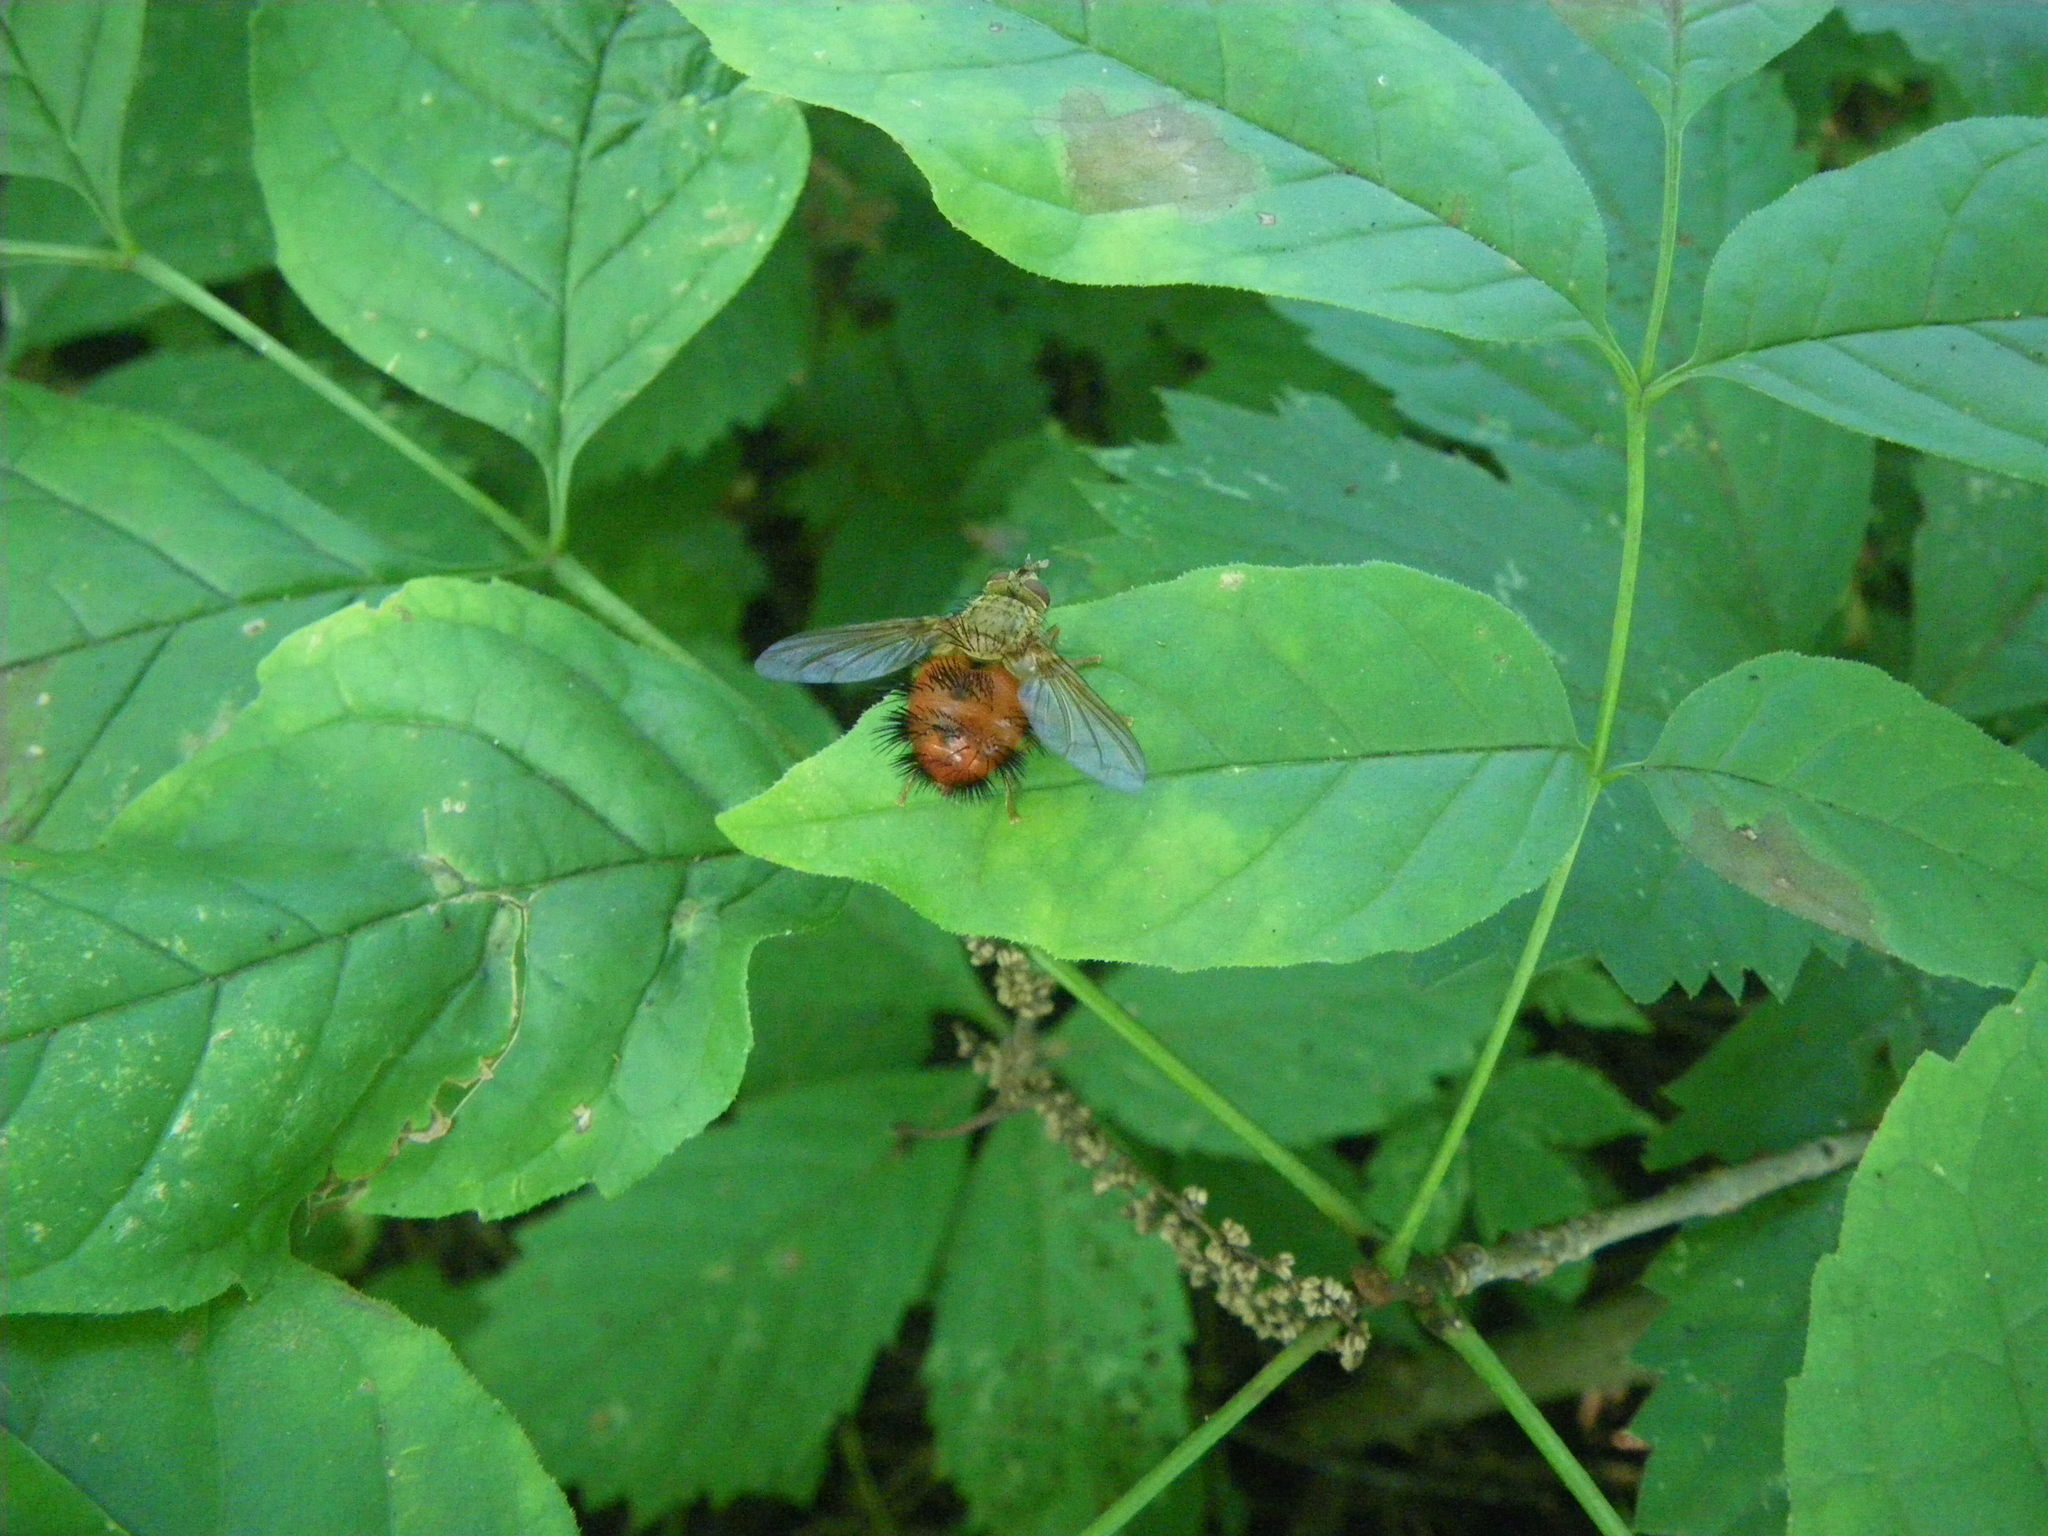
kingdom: Animalia
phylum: Arthropoda
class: Insecta
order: Diptera
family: Tachinidae
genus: Hystricia
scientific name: Hystricia abrupta
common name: Tomato bristle fly
